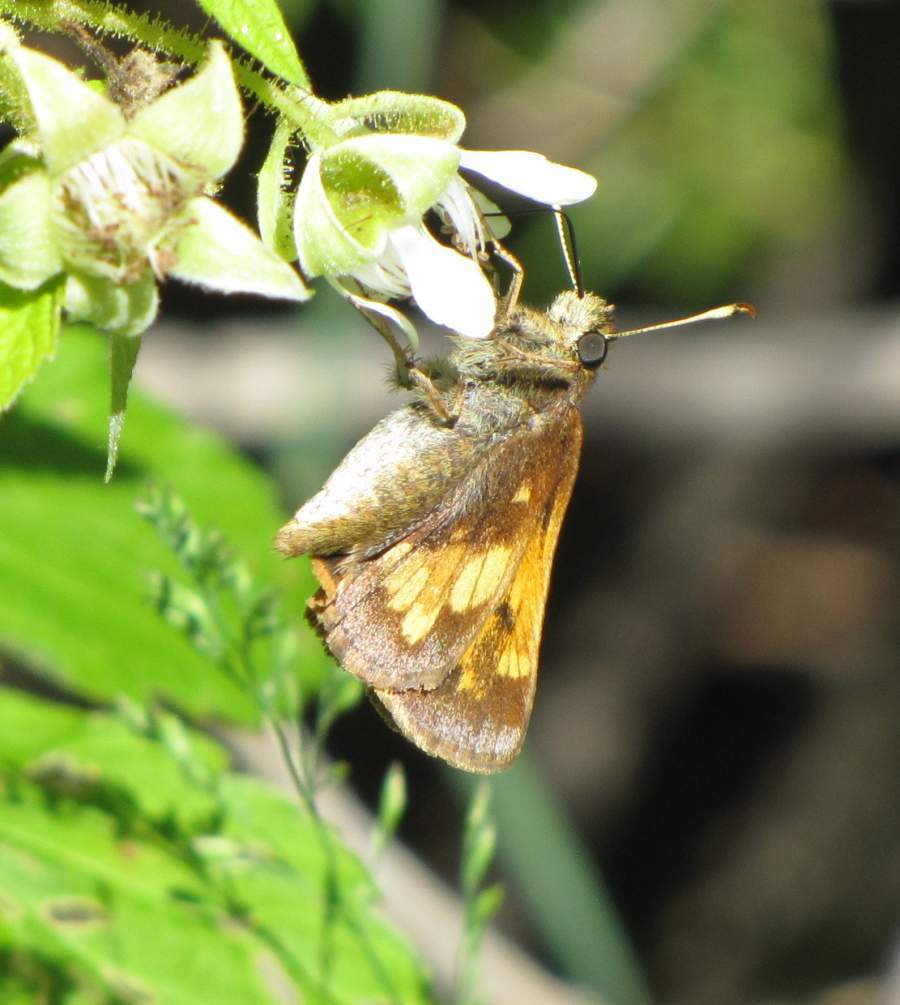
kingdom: Animalia
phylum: Arthropoda
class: Insecta
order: Lepidoptera
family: Hesperiidae
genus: Lon
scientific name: Lon hobomok
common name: Hobomok skipper
